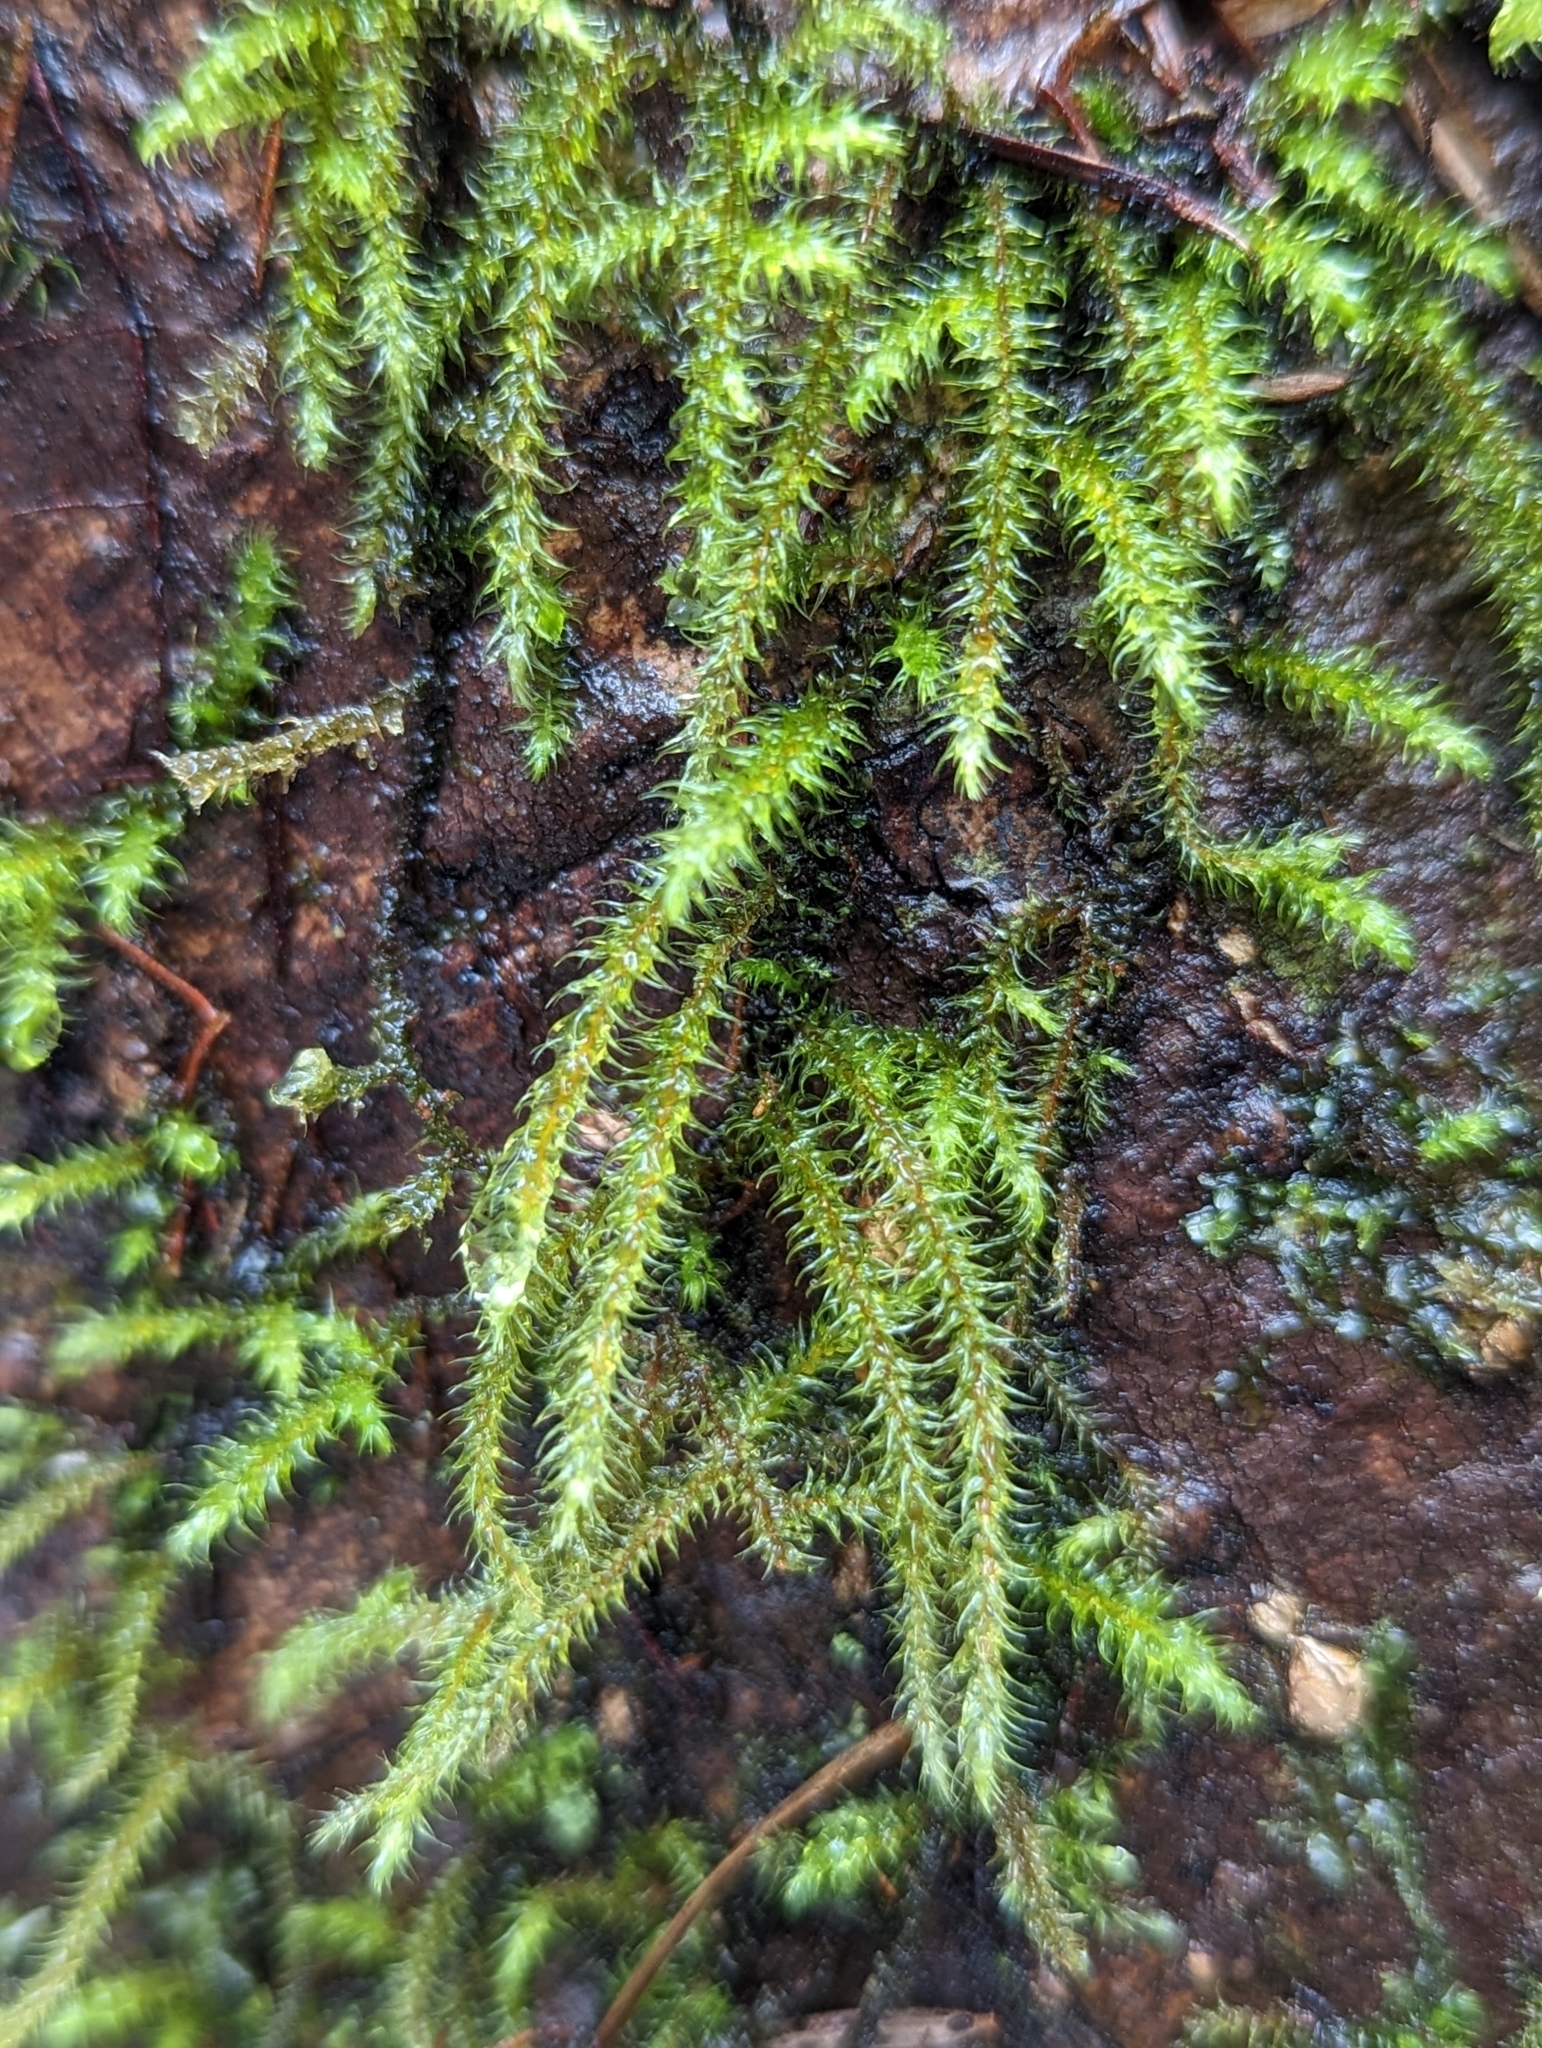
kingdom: Plantae
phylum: Bryophyta
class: Bryopsida
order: Hypnales
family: Hylocomiaceae
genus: Rhytidiadelphus
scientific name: Rhytidiadelphus loreus
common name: Lanky moss
